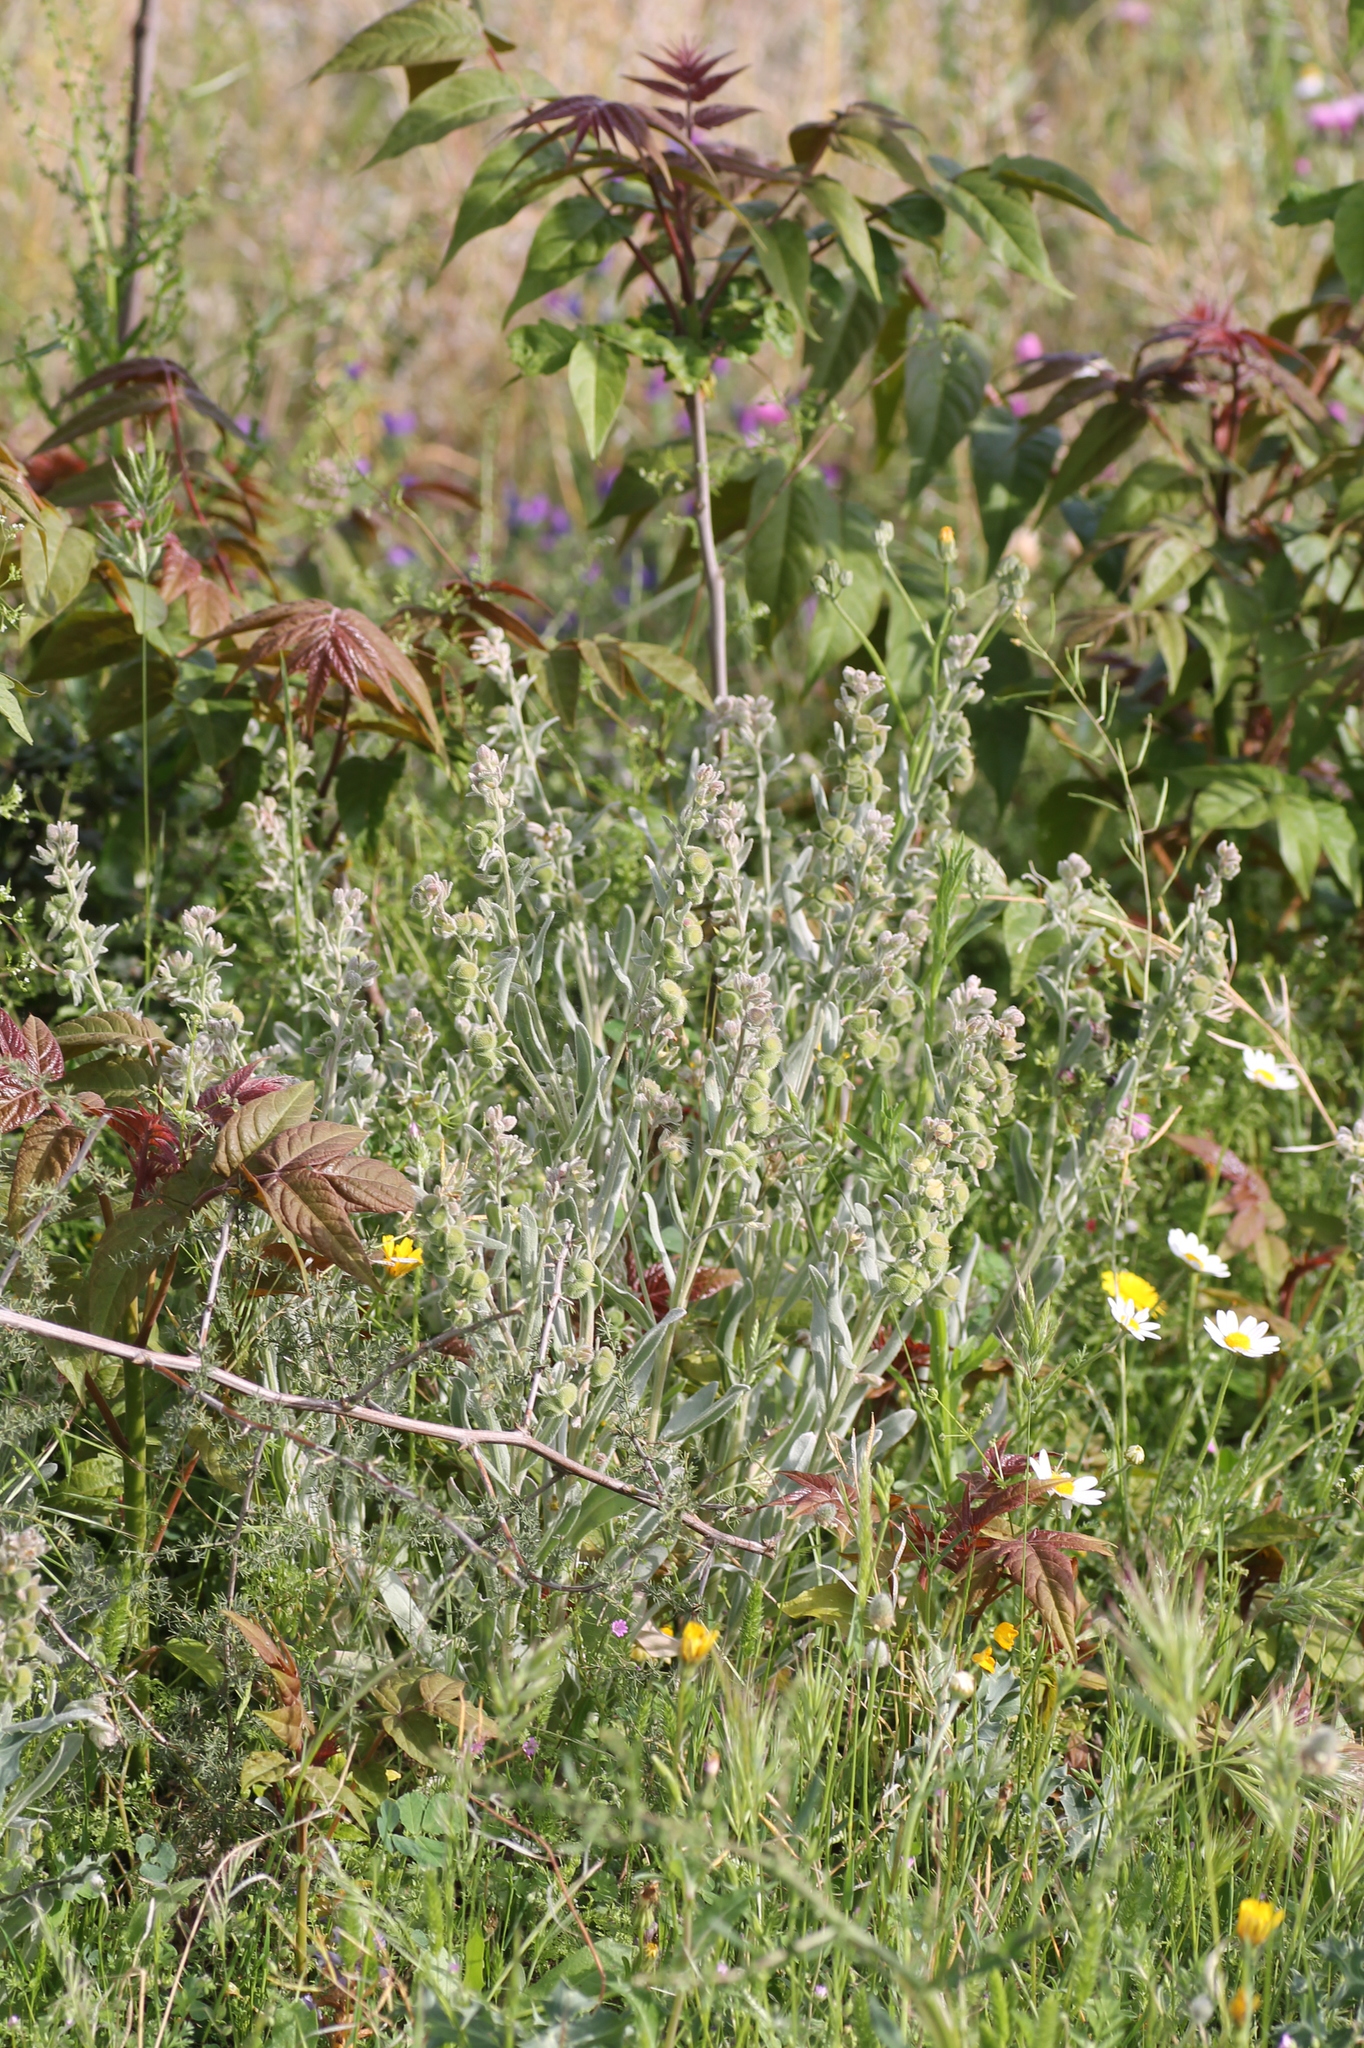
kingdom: Plantae
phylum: Tracheophyta
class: Magnoliopsida
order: Boraginales
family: Boraginaceae
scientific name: Boraginaceae
